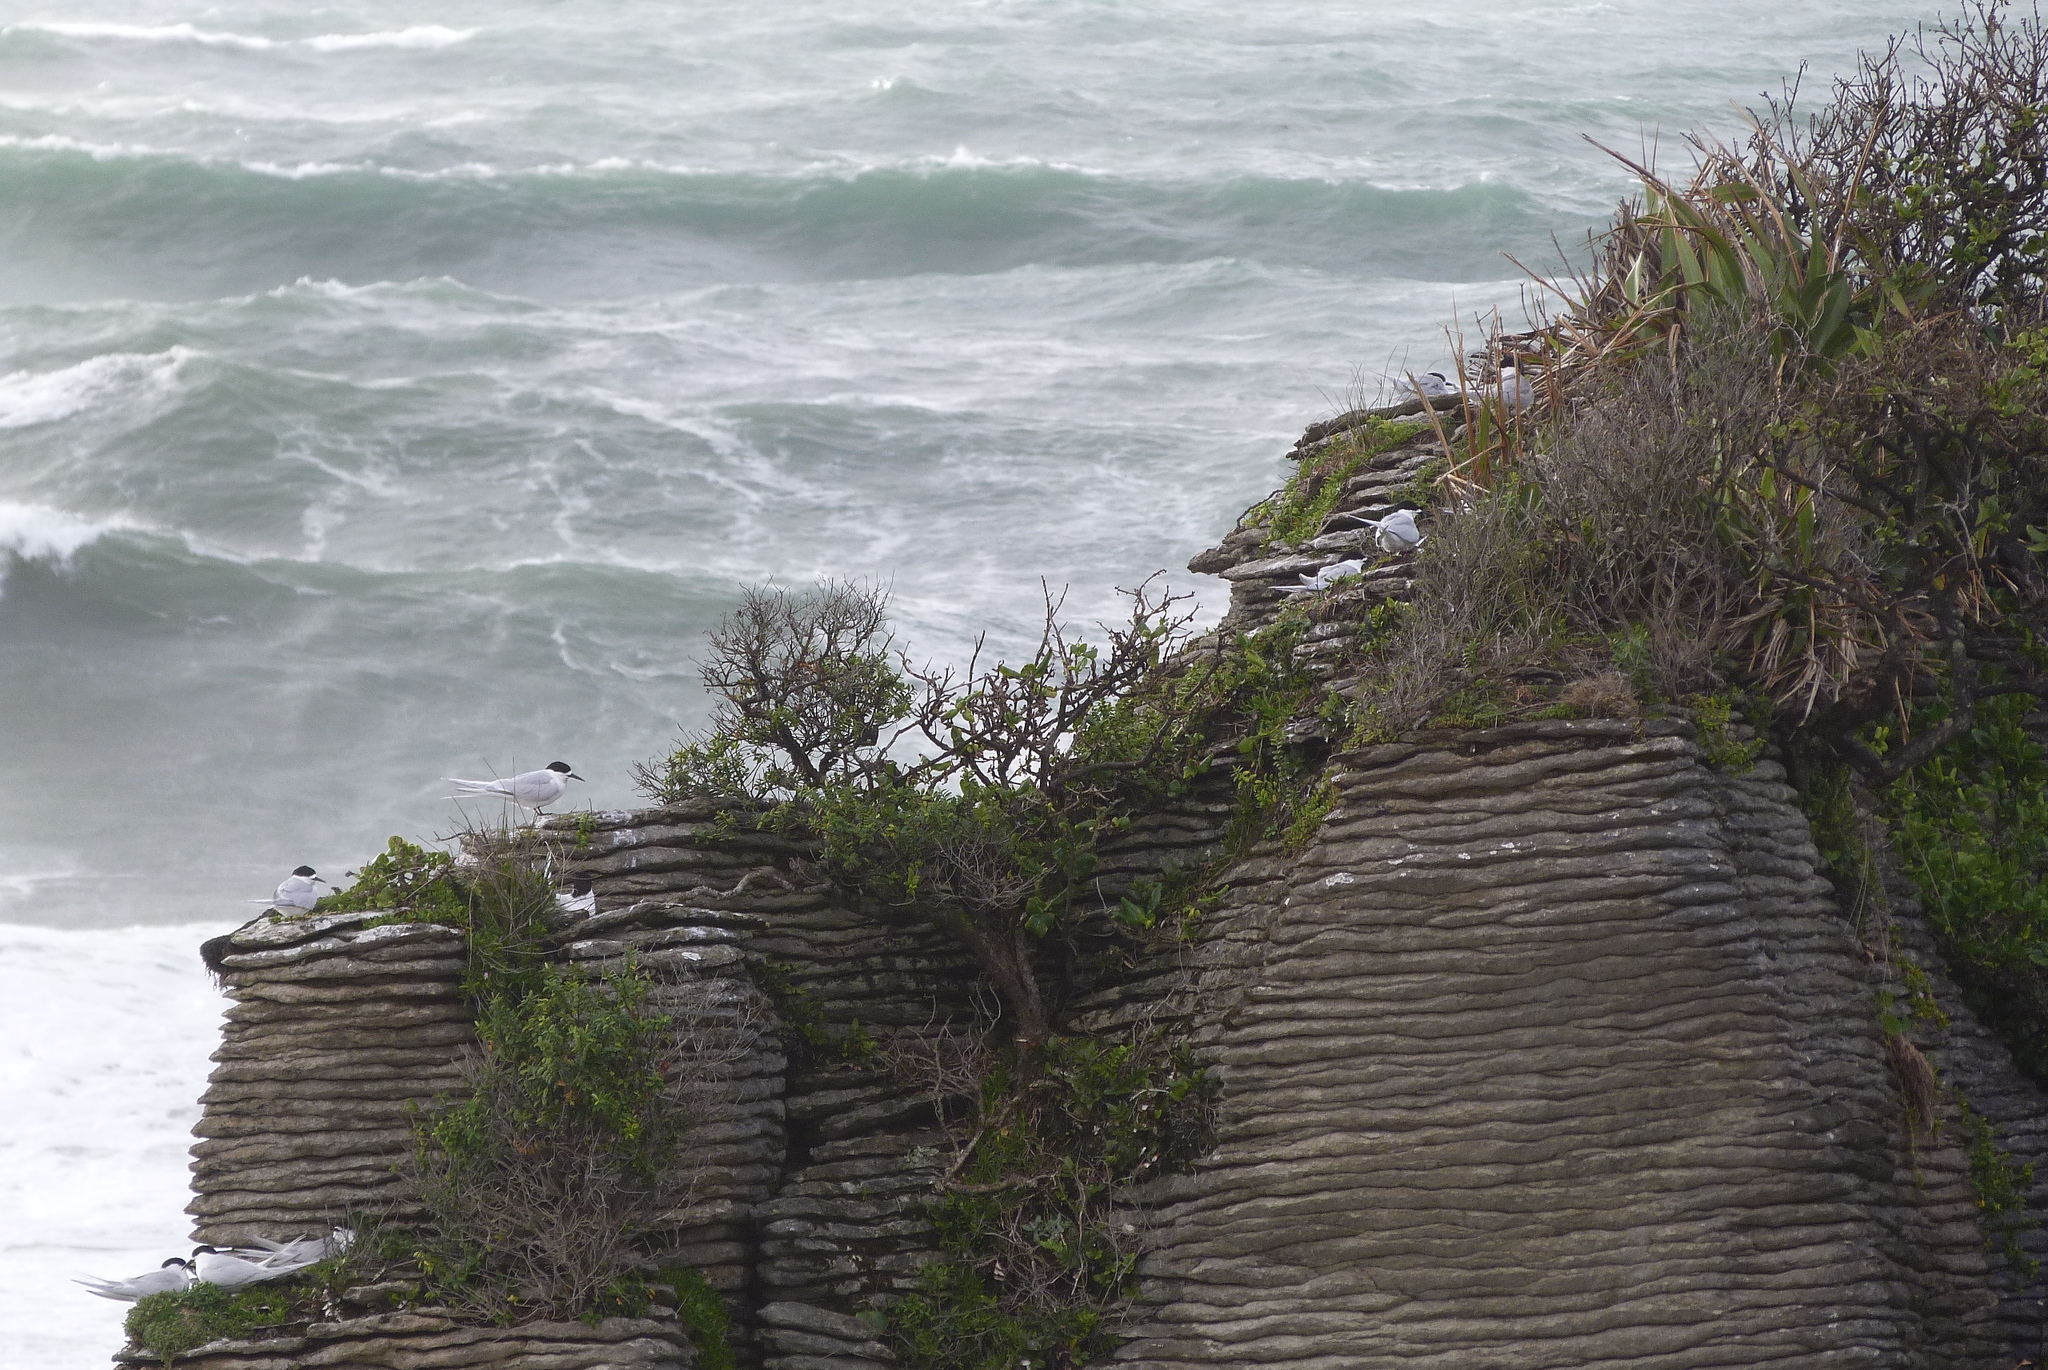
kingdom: Animalia
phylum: Chordata
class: Aves
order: Charadriiformes
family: Laridae
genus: Sterna
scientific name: Sterna striata
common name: White-fronted tern
